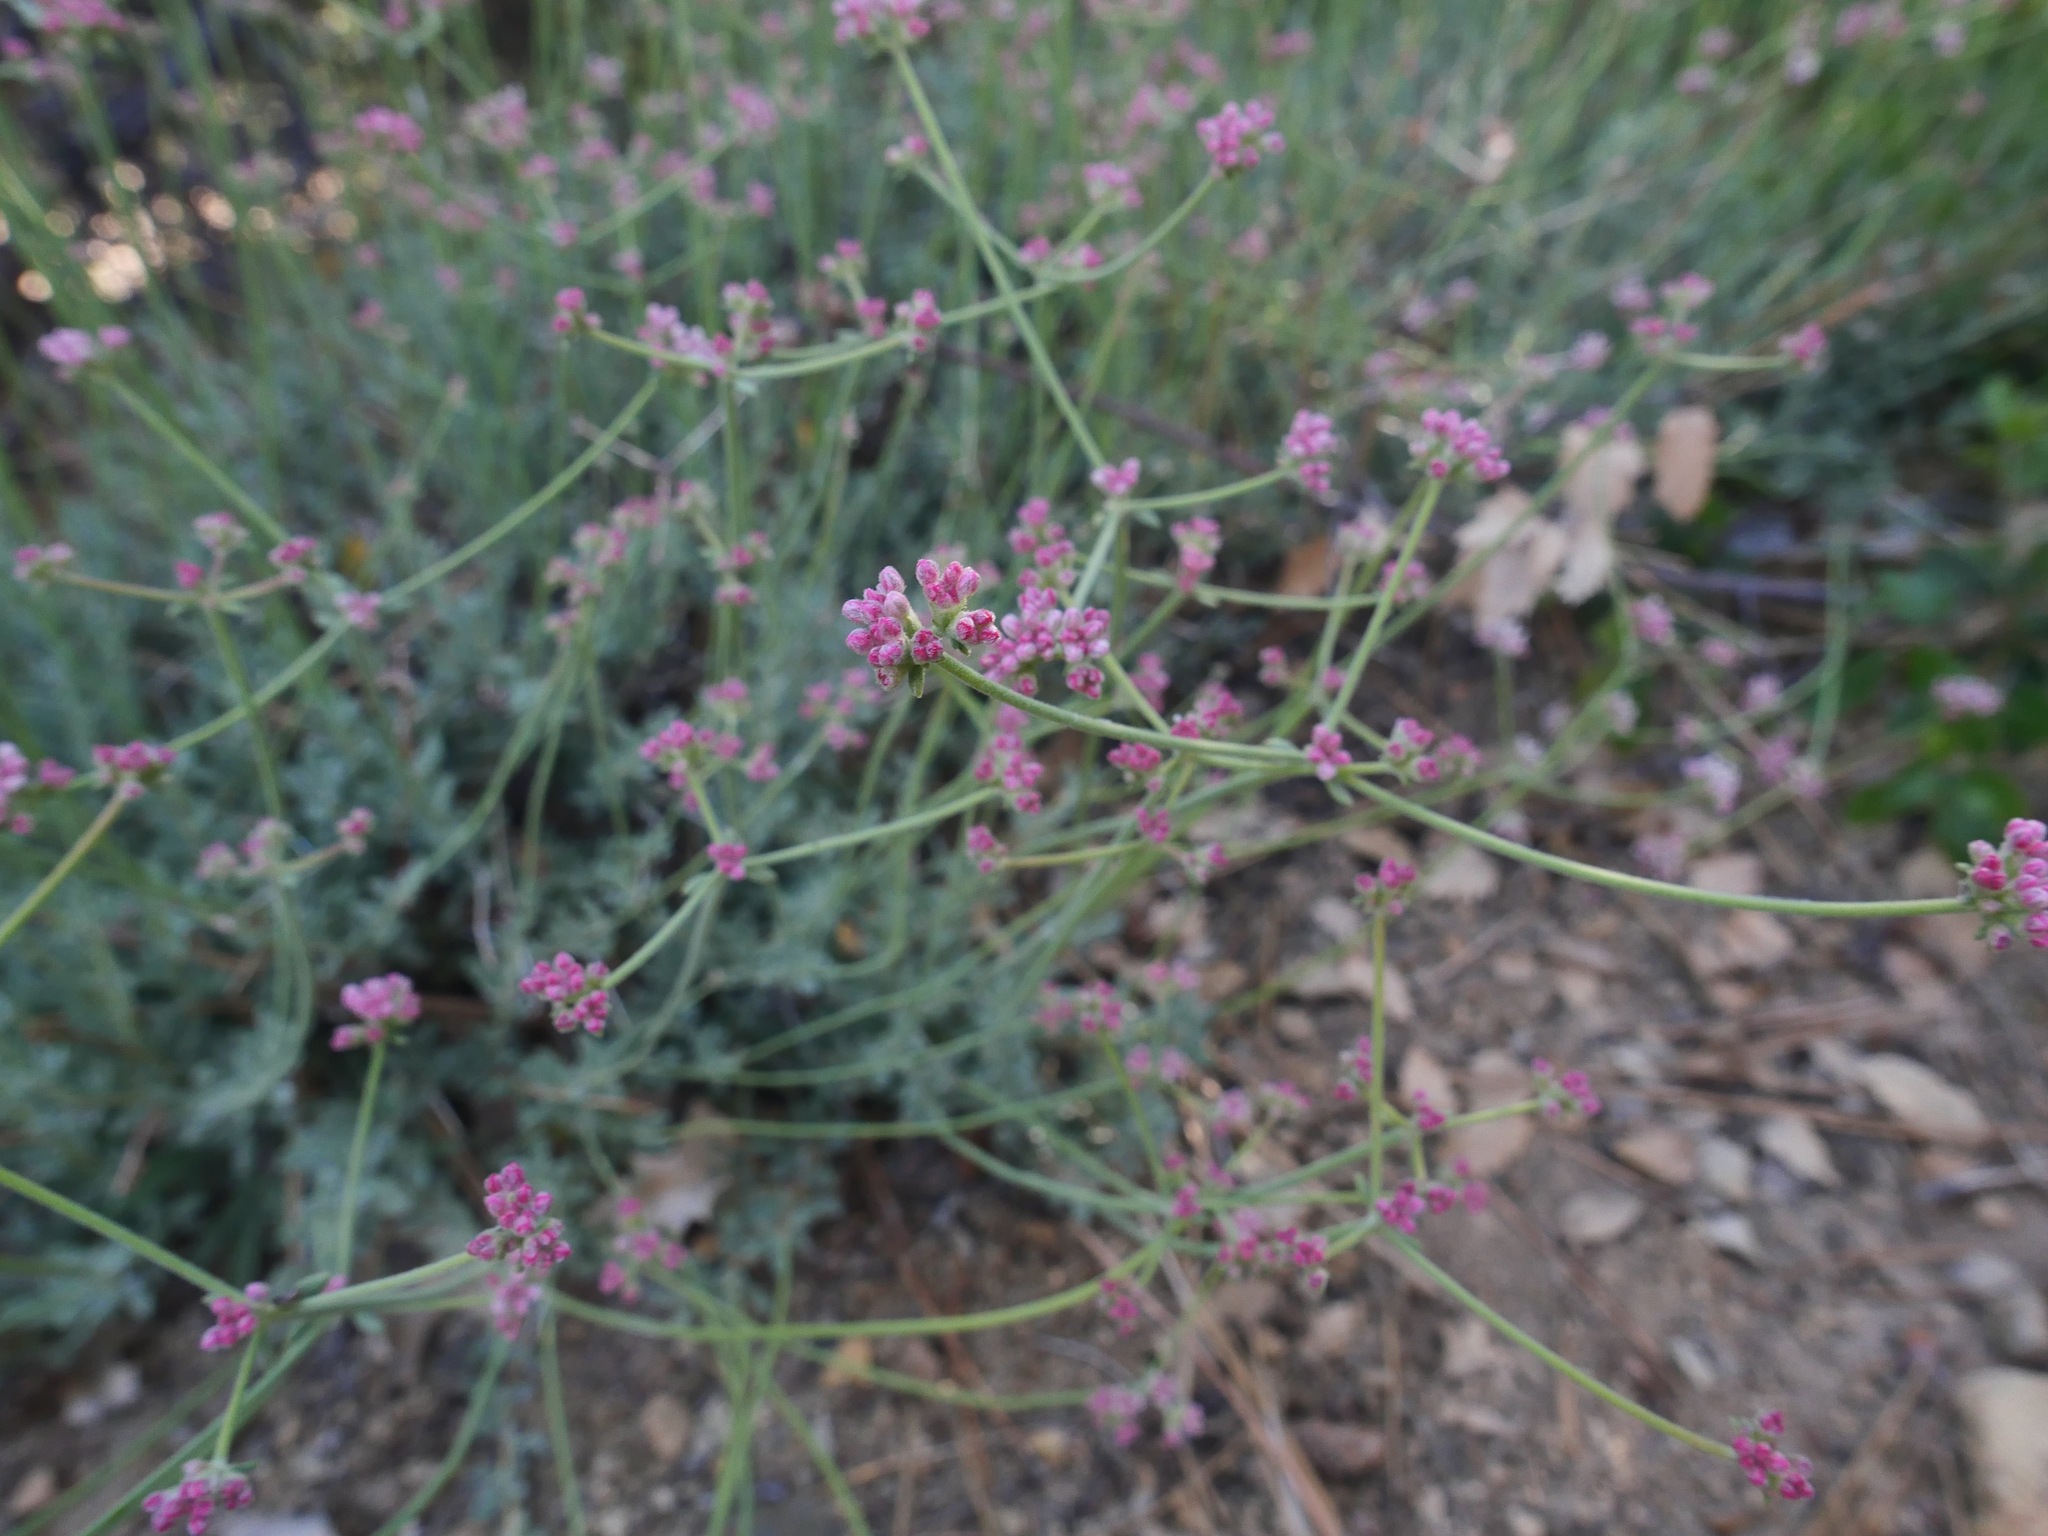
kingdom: Plantae
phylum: Tracheophyta
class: Magnoliopsida
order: Caryophyllales
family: Polygonaceae
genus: Eriogonum
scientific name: Eriogonum fasciculatum
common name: California wild buckwheat
